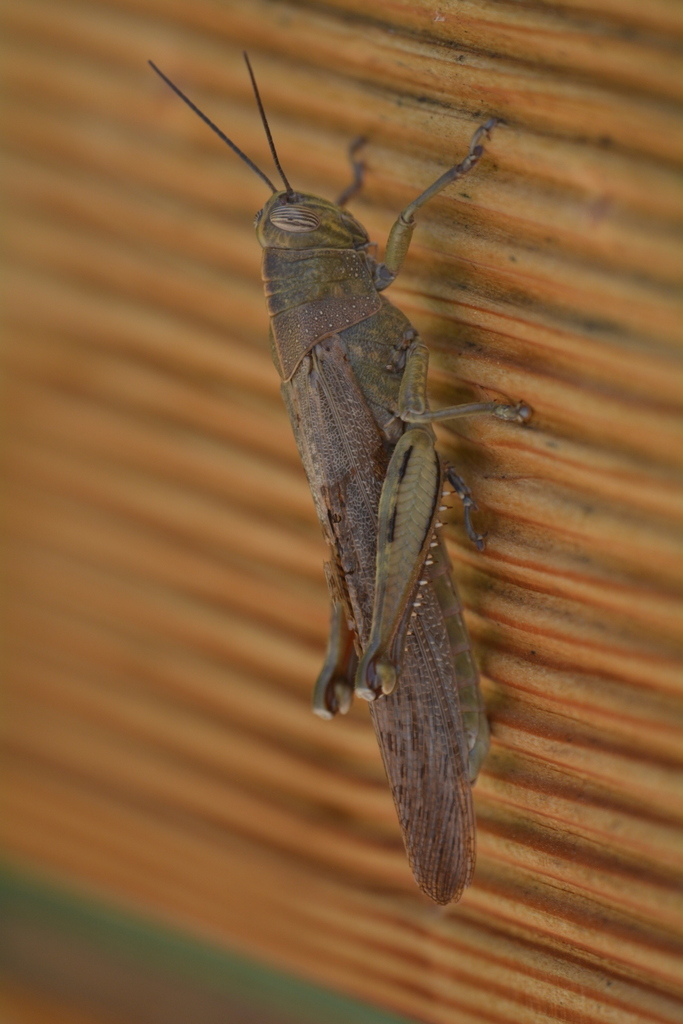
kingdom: Animalia
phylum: Arthropoda
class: Insecta
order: Orthoptera
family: Acrididae
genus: Anacridium
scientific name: Anacridium aegyptium
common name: Egyptian grasshopper
